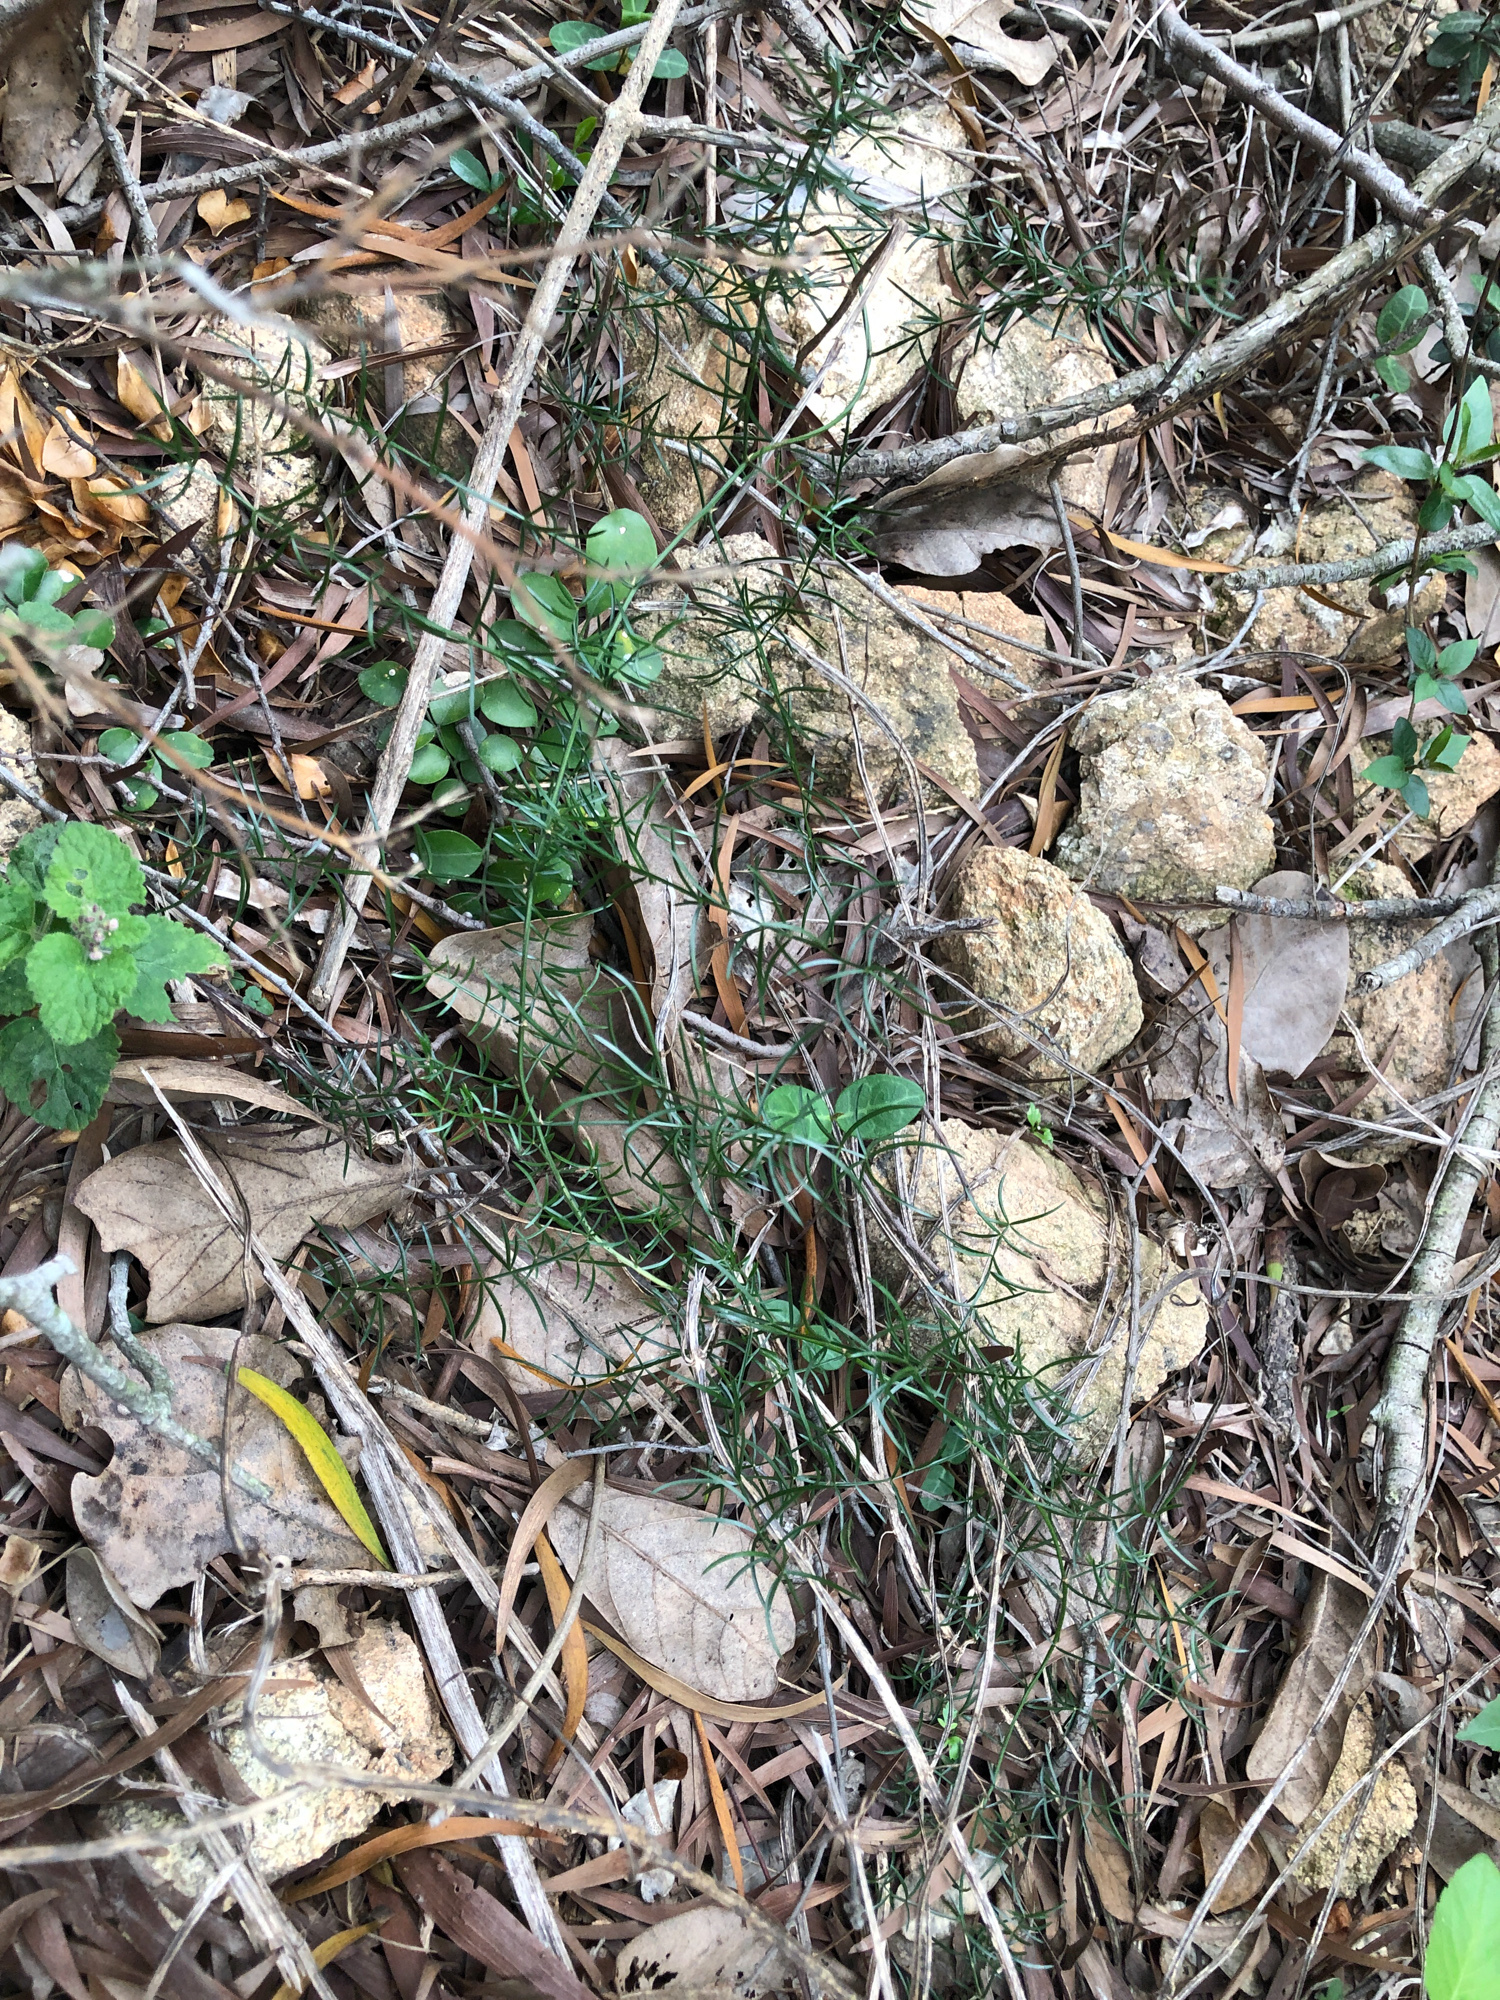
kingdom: Plantae
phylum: Tracheophyta
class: Liliopsida
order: Asparagales
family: Asparagaceae
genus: Asparagus
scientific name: Asparagus cochinchinensis
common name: Chinese asparagus
